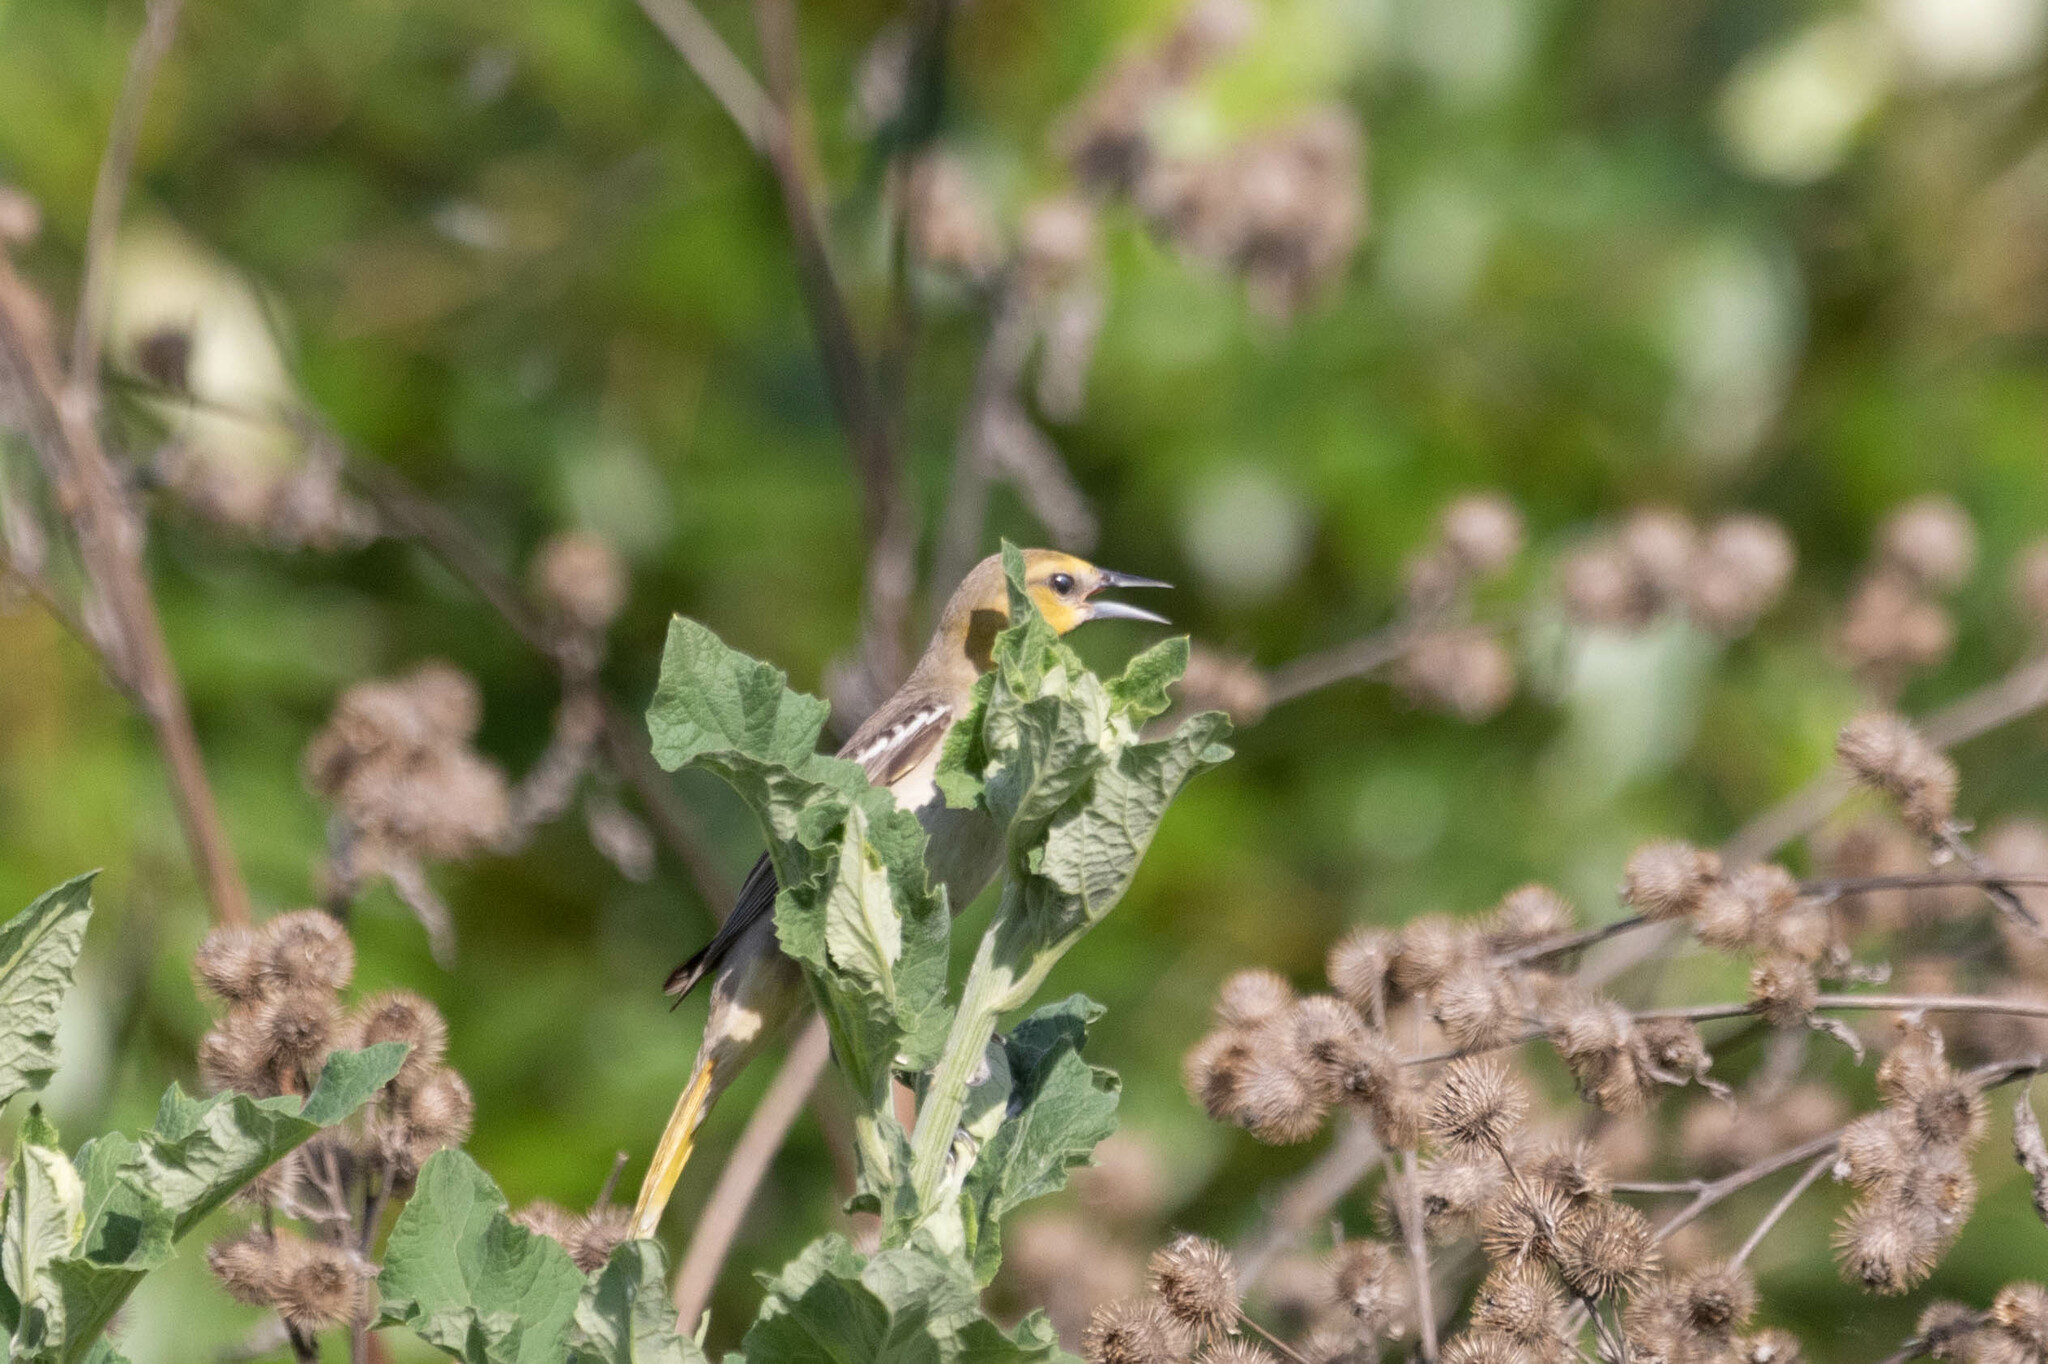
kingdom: Animalia
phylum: Chordata
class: Aves
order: Passeriformes
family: Icteridae
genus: Icterus
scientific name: Icterus bullockii
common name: Bullock's oriole
